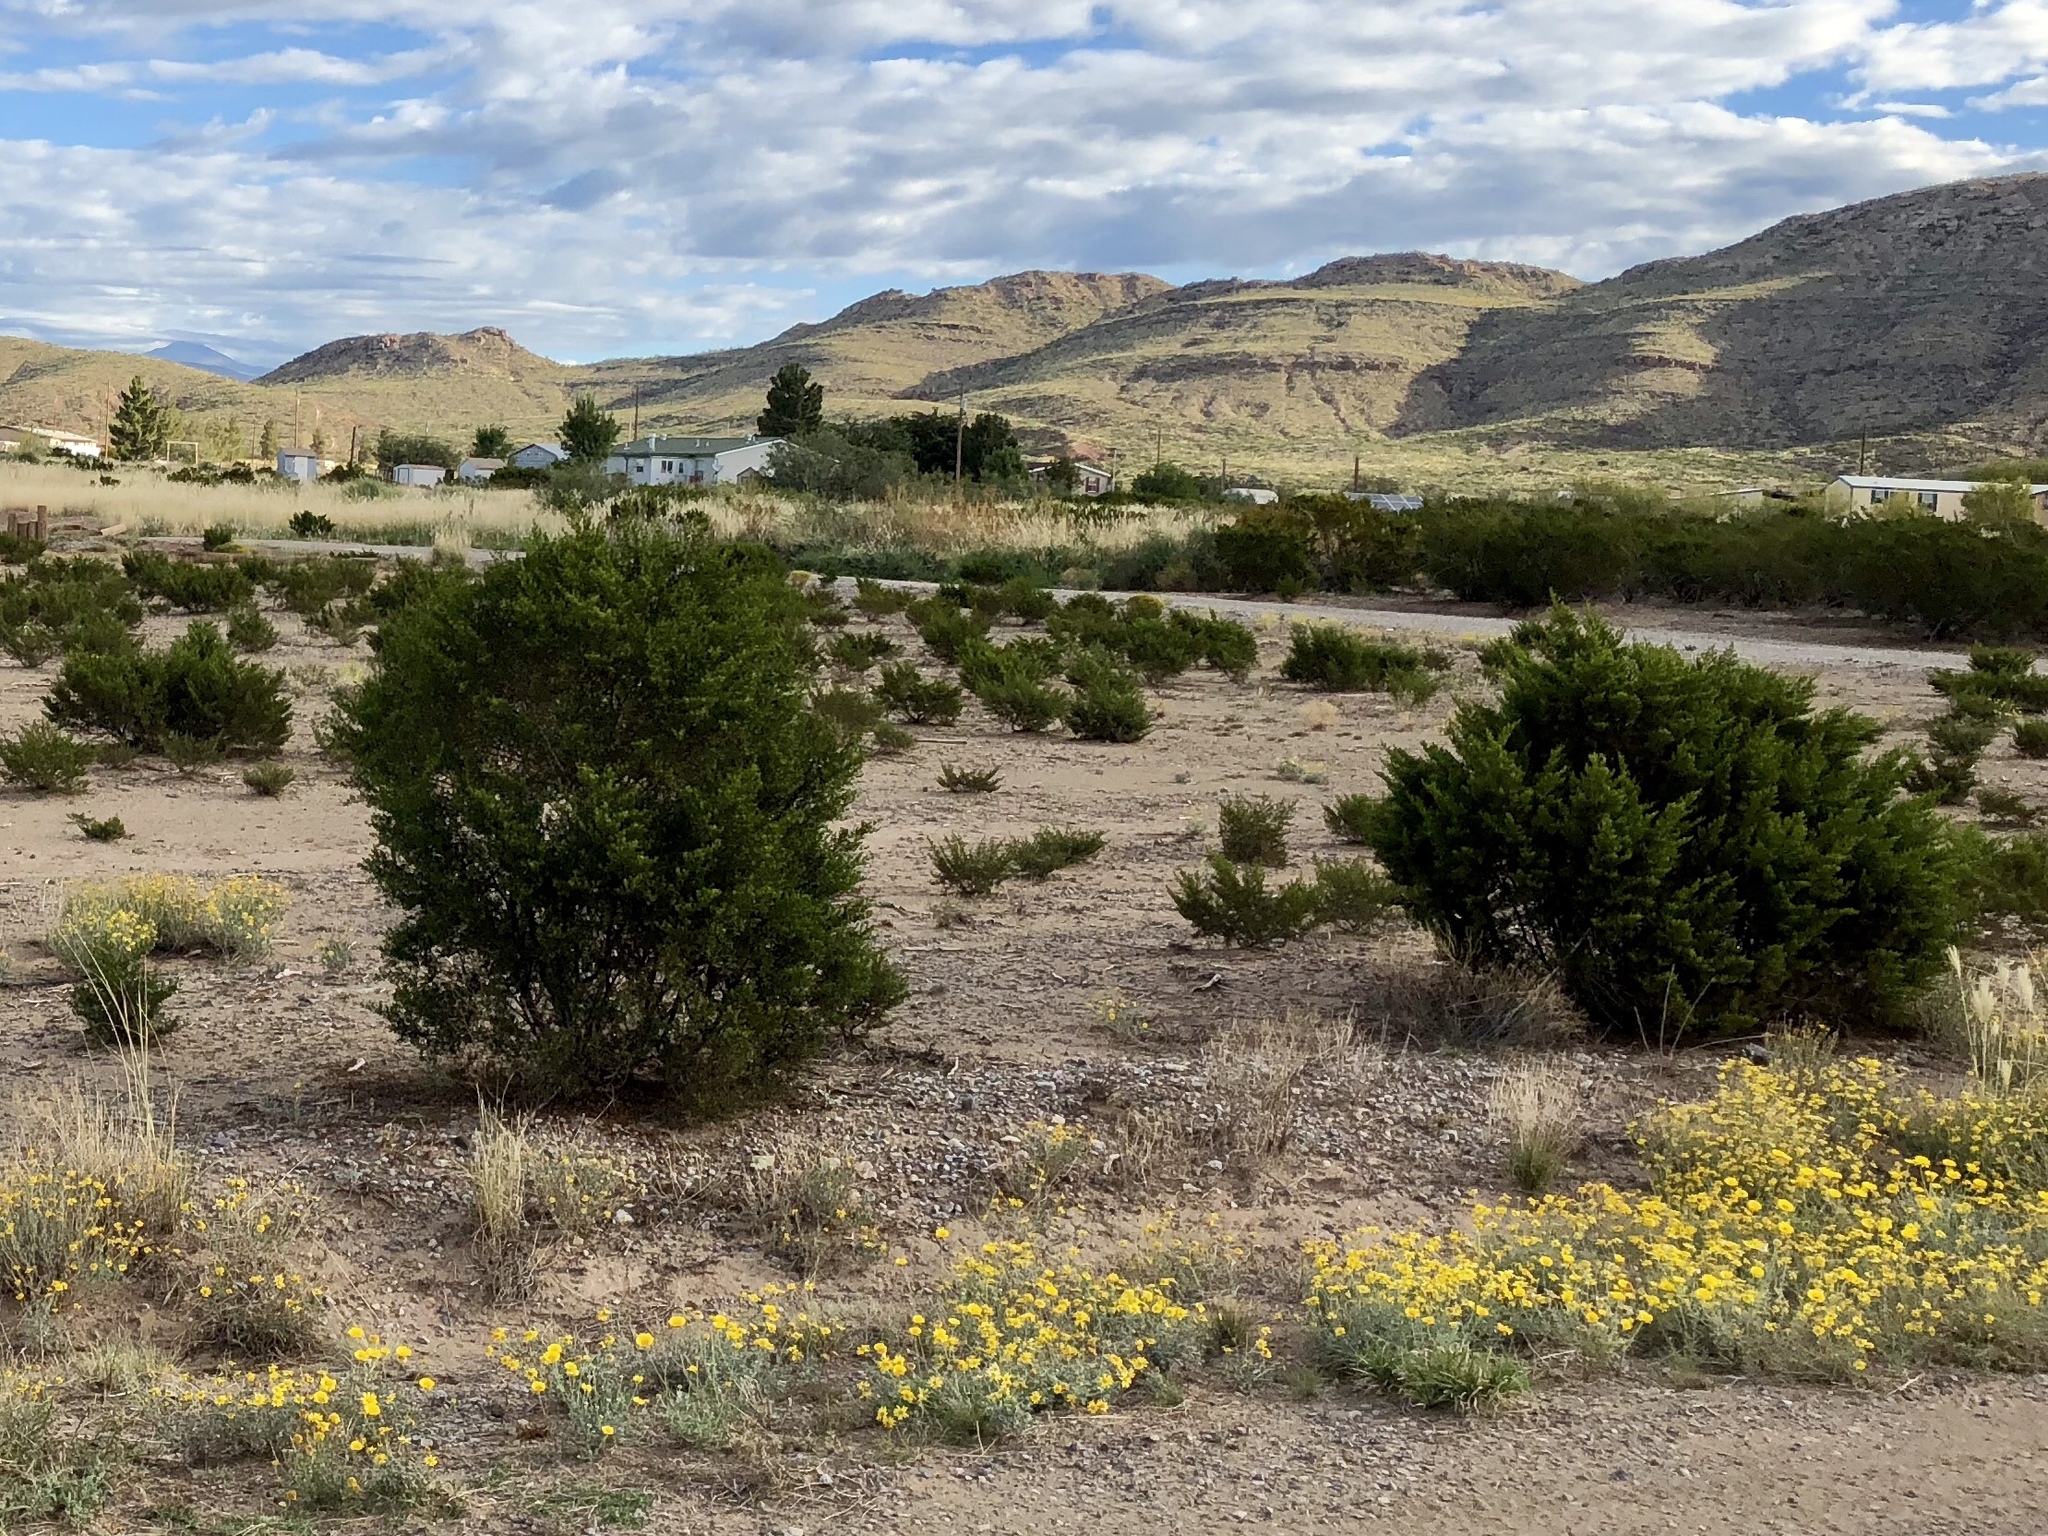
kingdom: Plantae
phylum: Tracheophyta
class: Magnoliopsida
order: Zygophyllales
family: Zygophyllaceae
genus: Larrea
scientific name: Larrea tridentata
